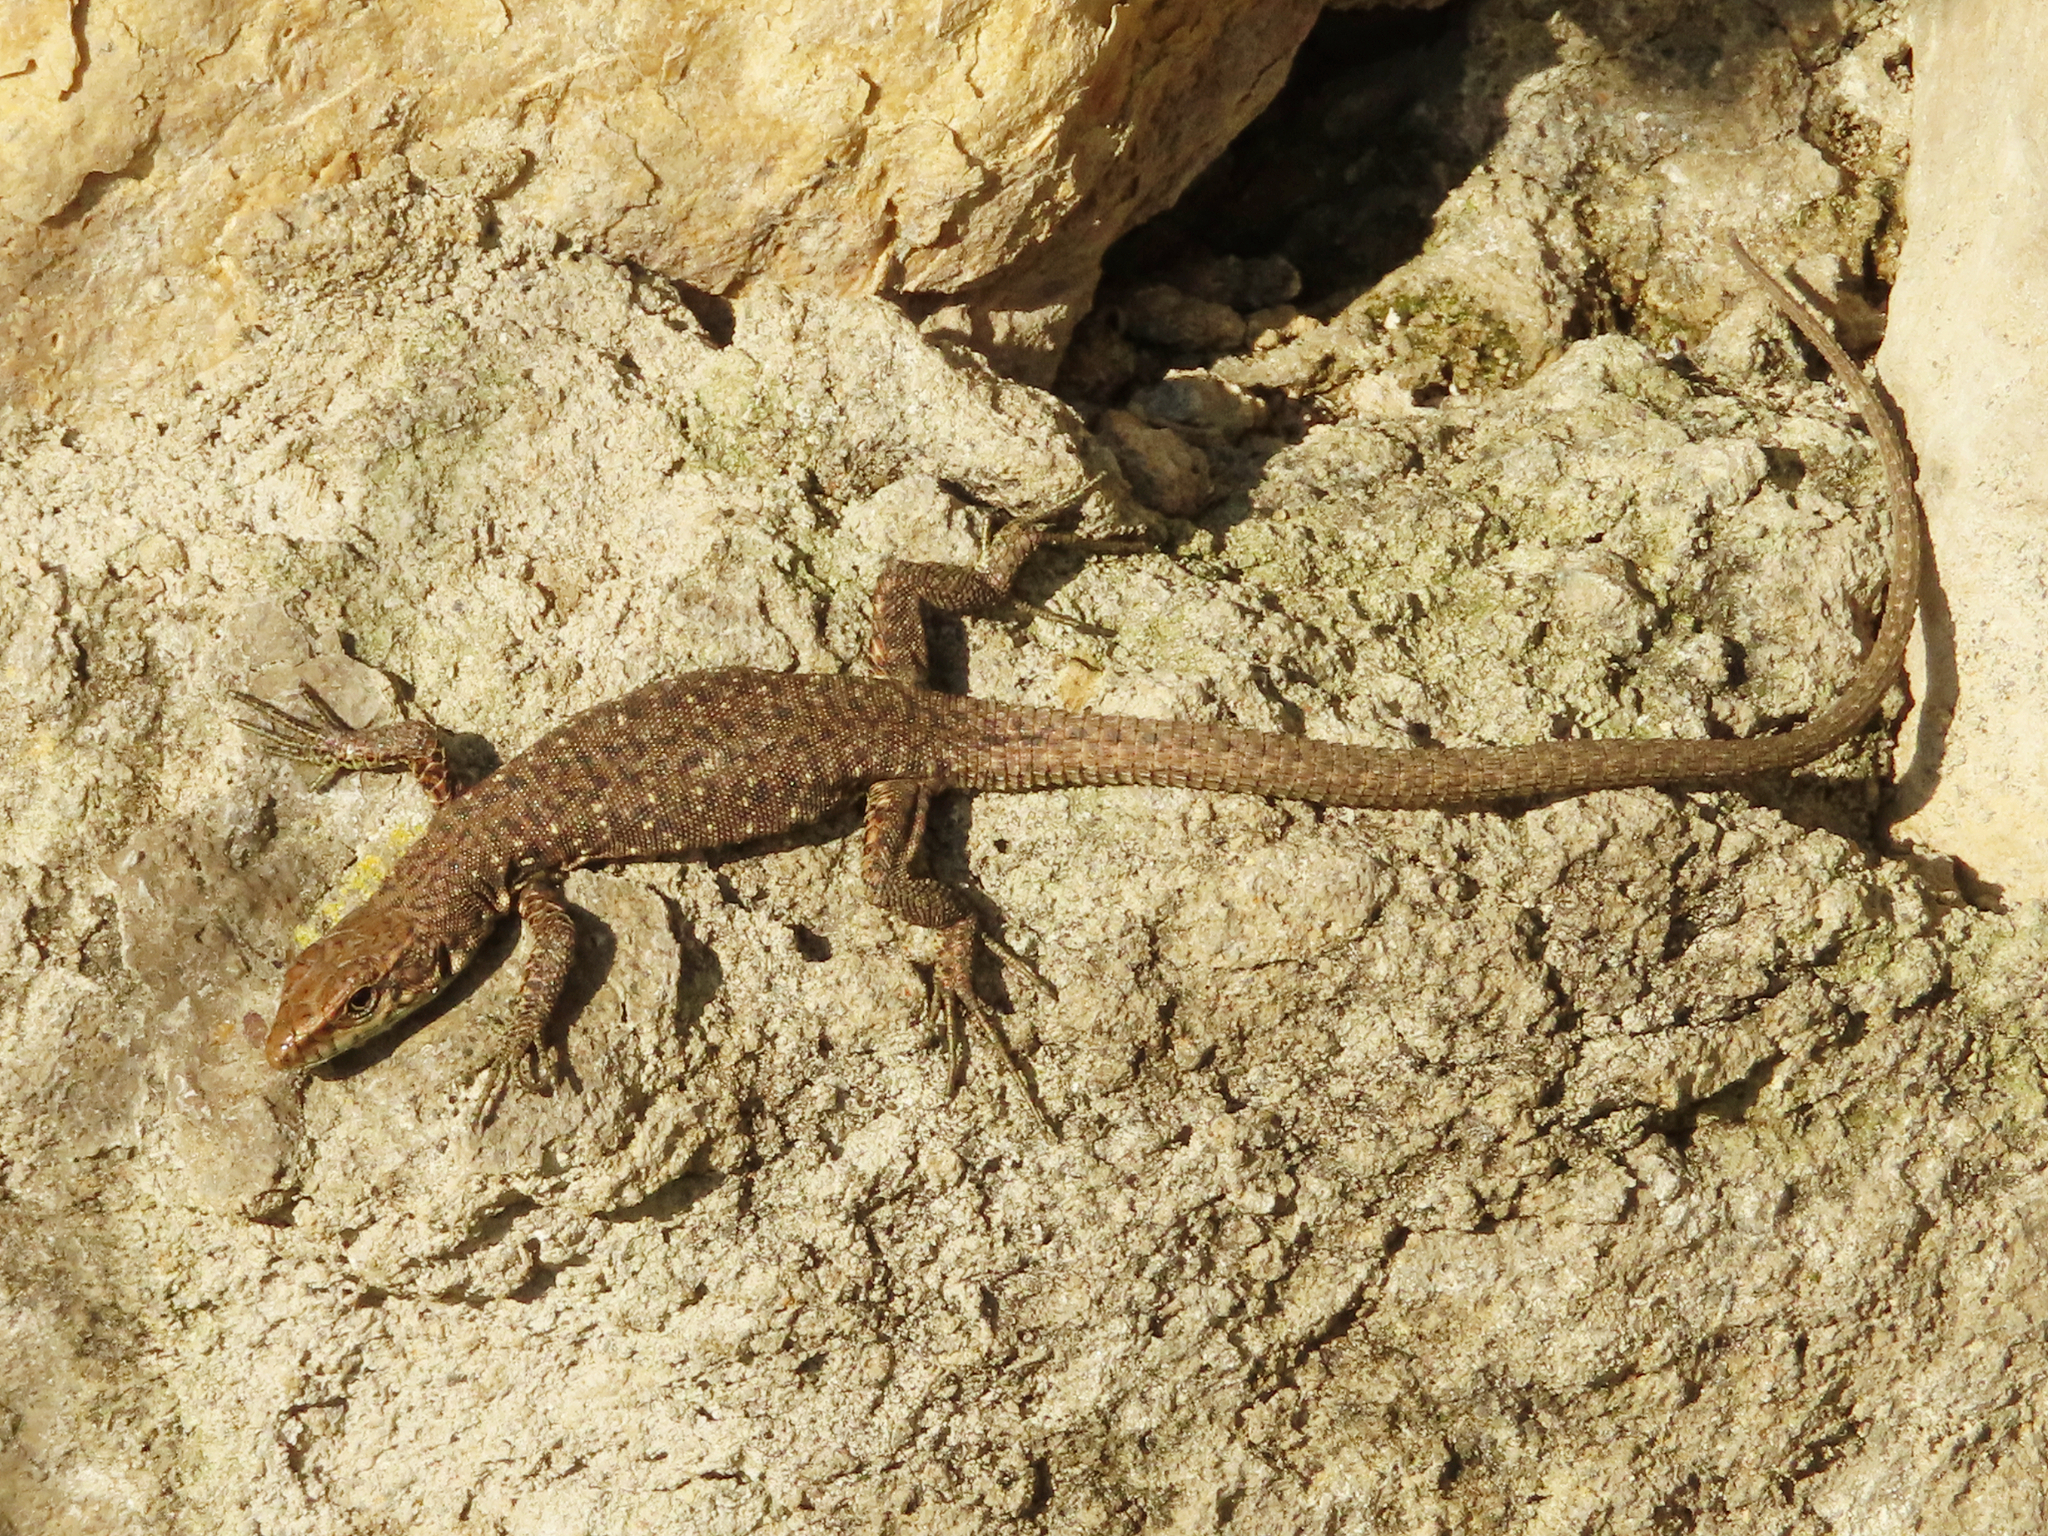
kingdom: Animalia
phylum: Chordata
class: Squamata
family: Lacertidae
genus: Darevskia
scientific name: Darevskia rudis
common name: Spiny-tailed lizard
